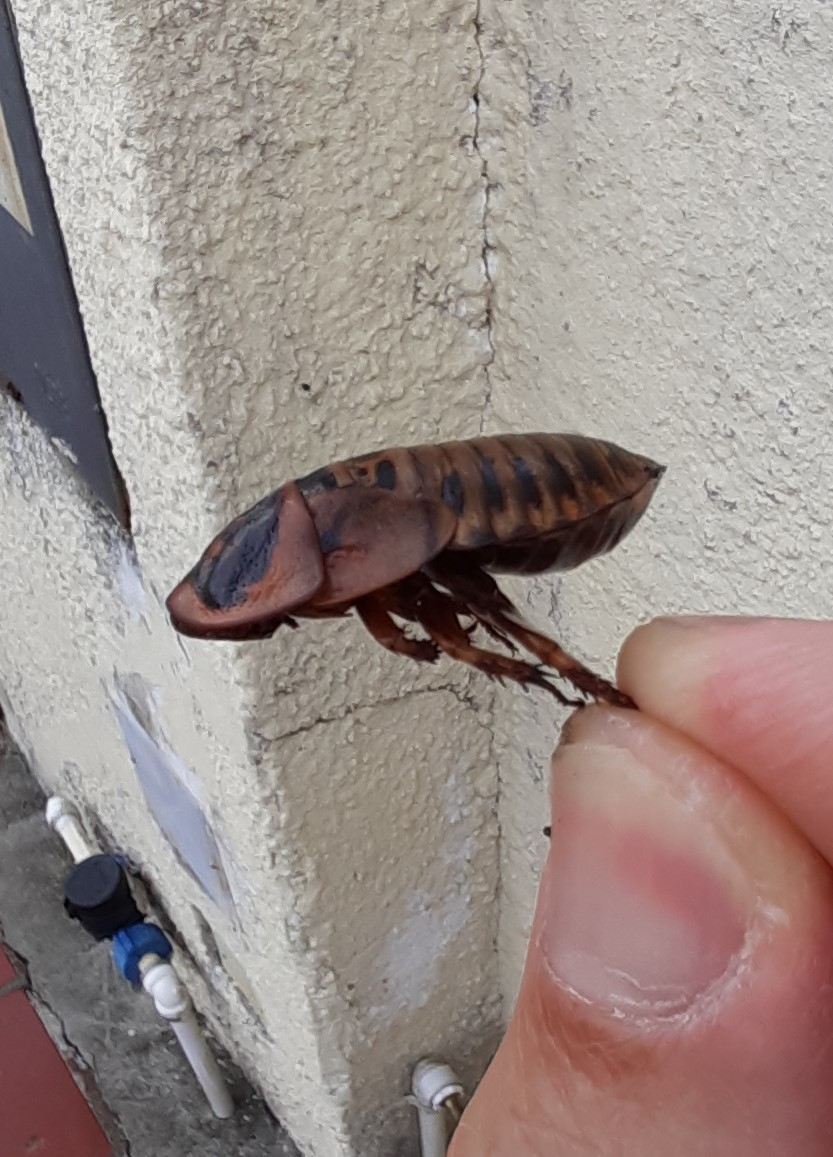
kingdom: Animalia
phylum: Arthropoda
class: Insecta
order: Blattodea
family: Blaberidae
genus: Parahormetica
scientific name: Parahormetica bilobata
